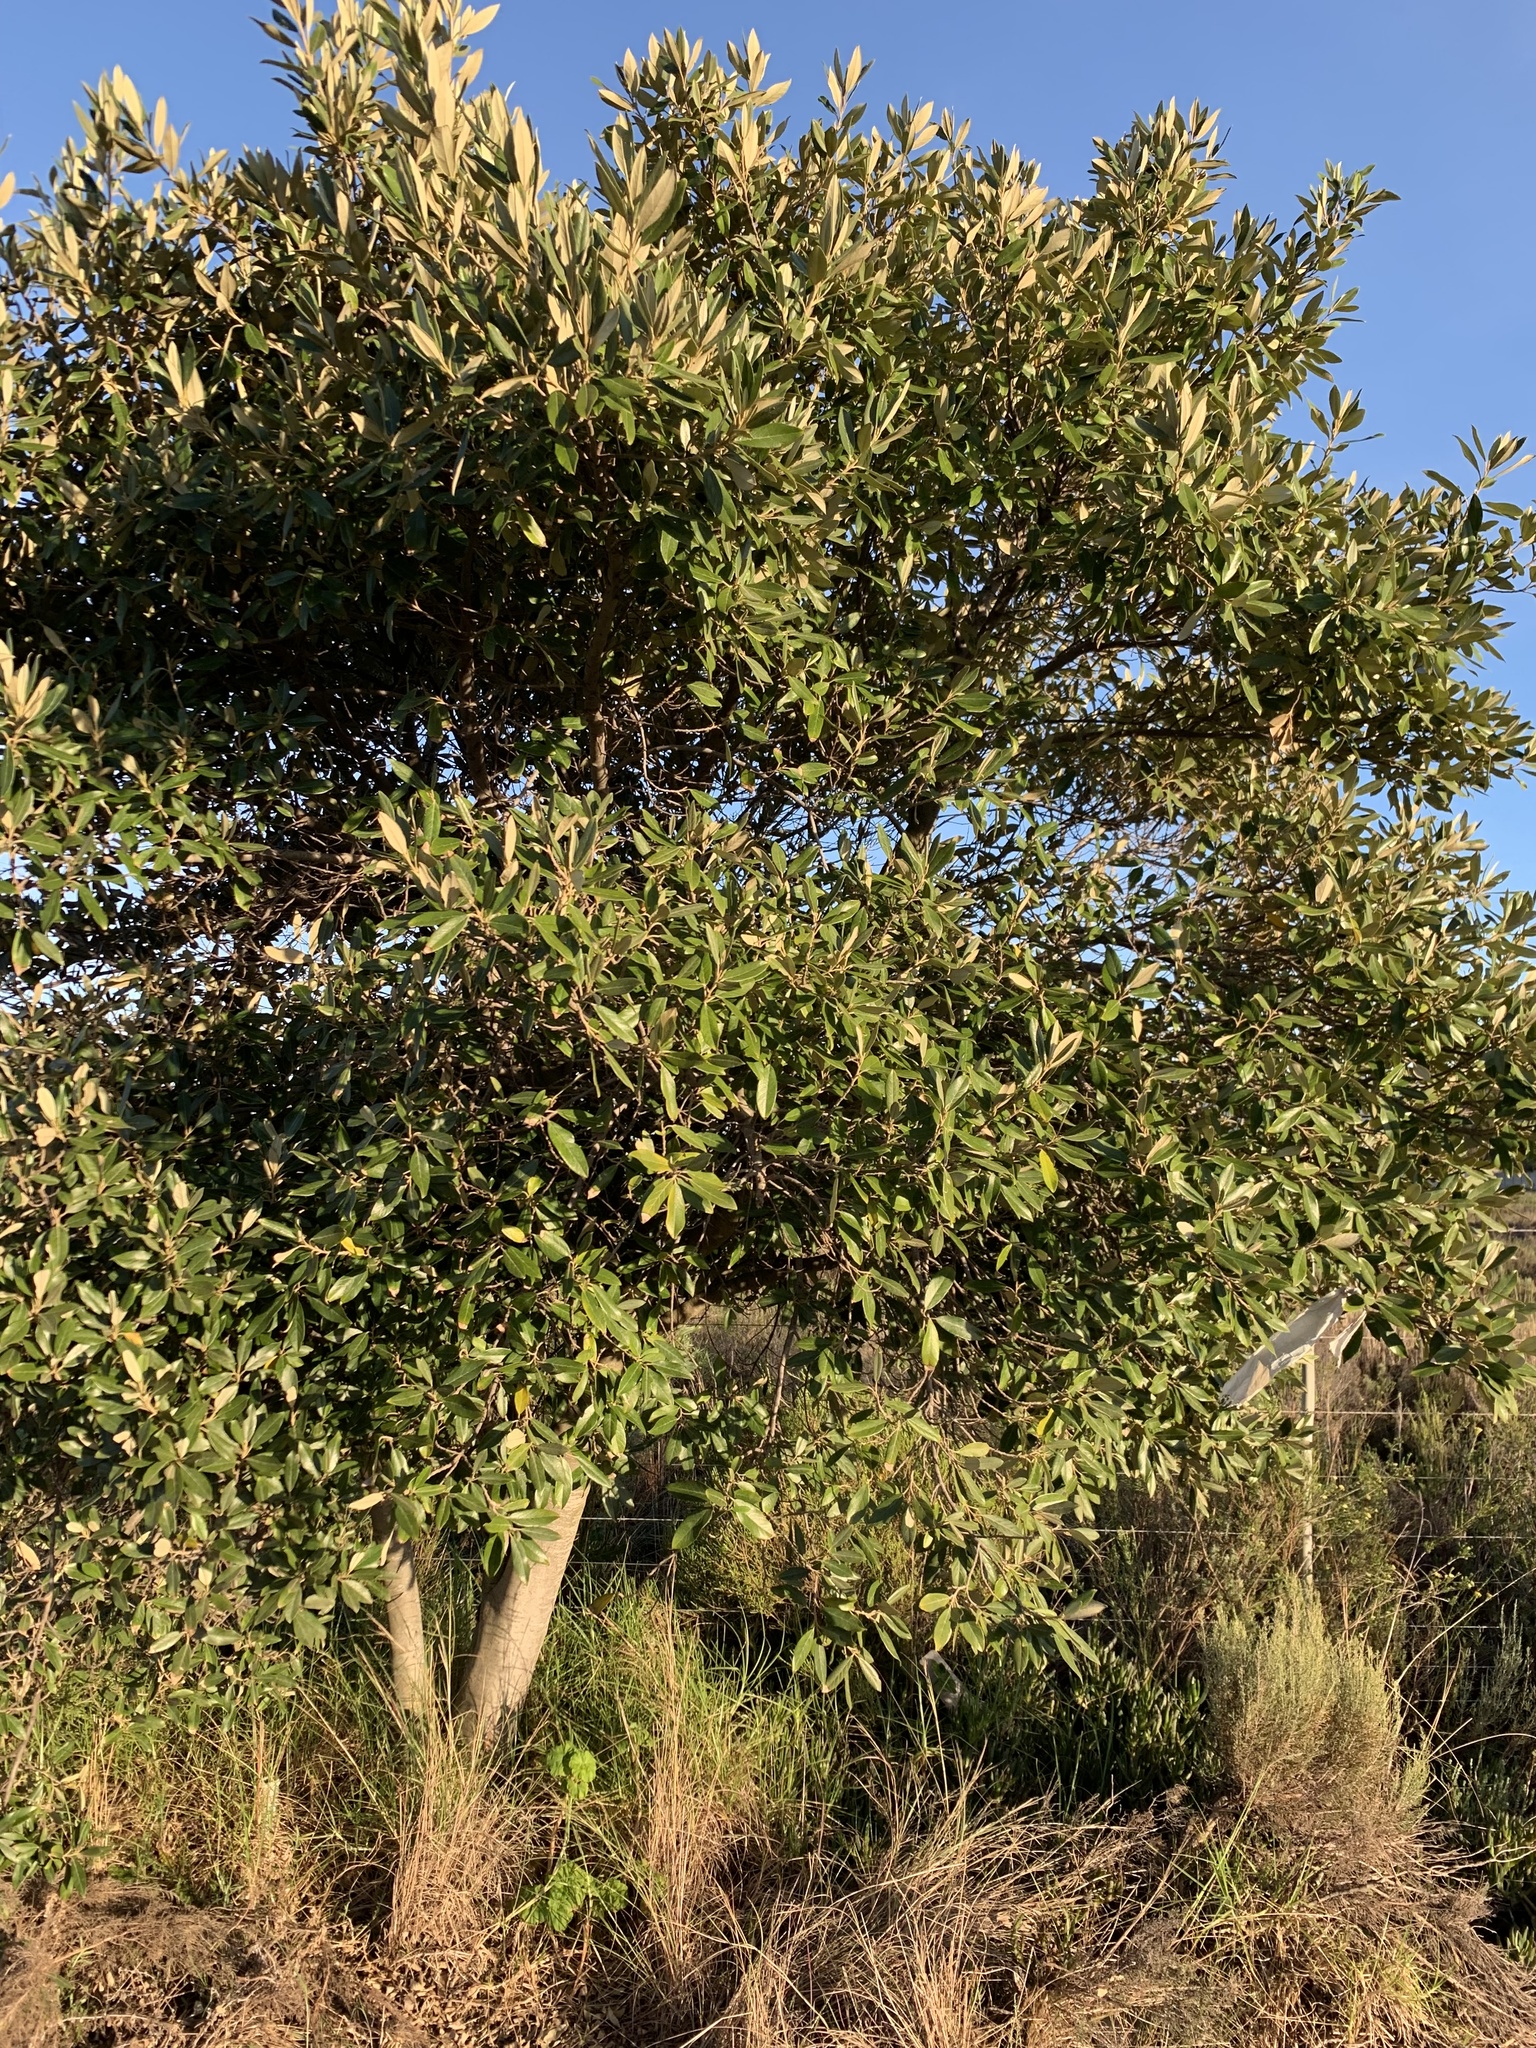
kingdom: Plantae
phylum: Tracheophyta
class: Magnoliopsida
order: Malpighiales
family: Achariaceae
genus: Kiggelaria
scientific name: Kiggelaria africana
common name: Wild peach
